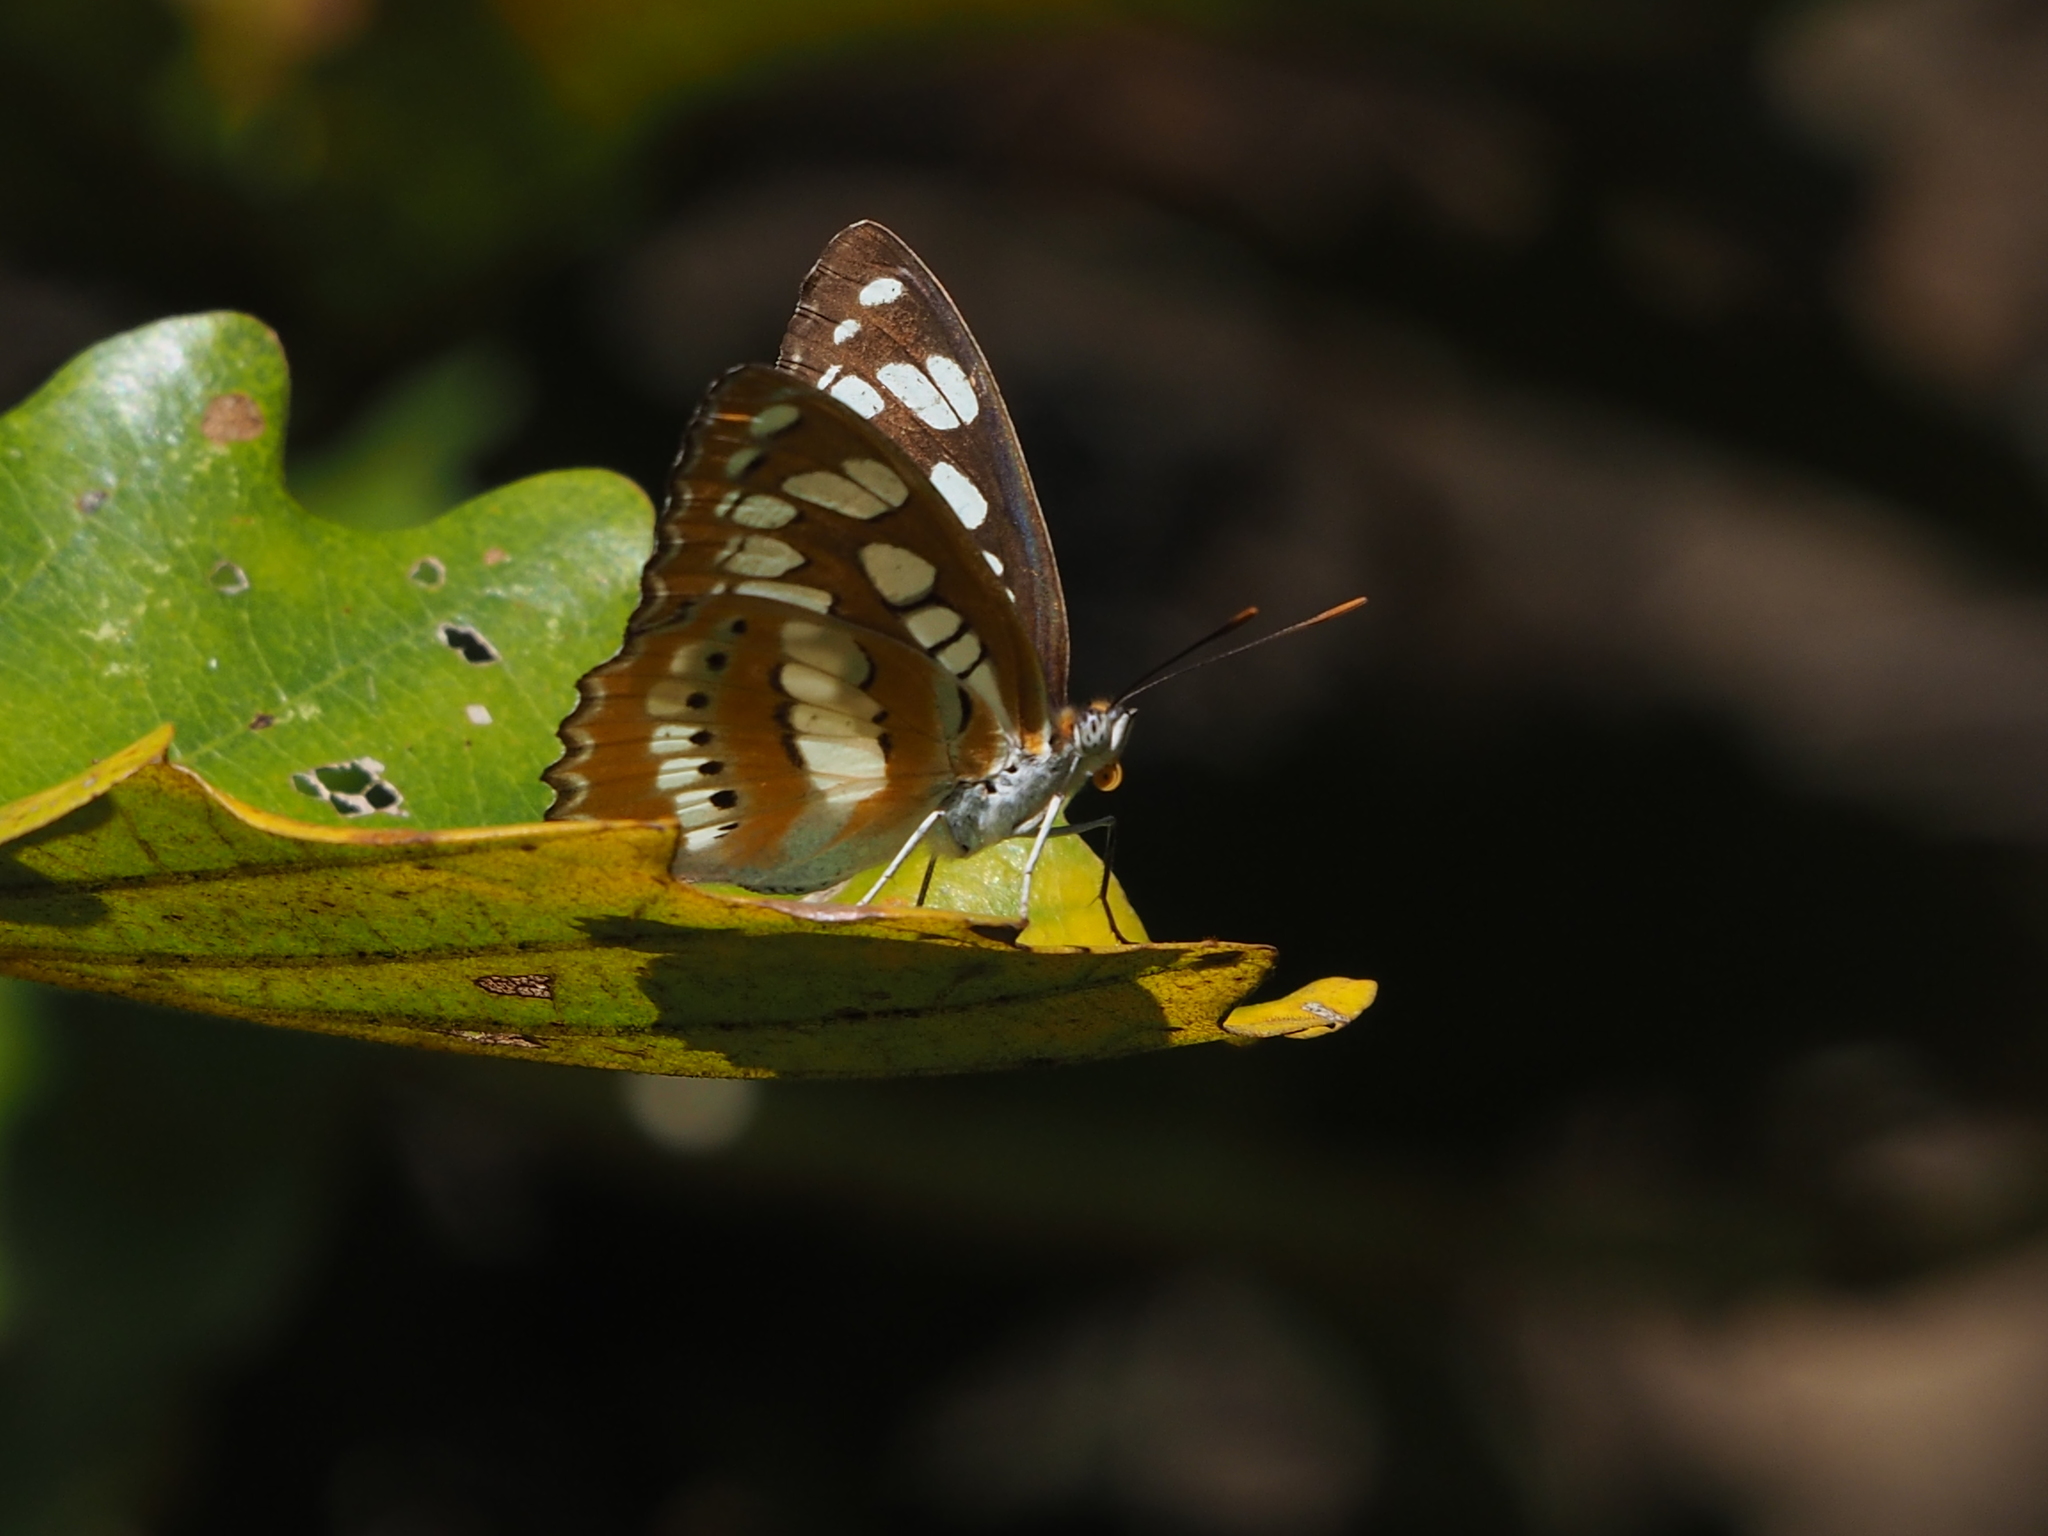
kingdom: Animalia
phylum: Arthropoda
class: Insecta
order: Lepidoptera
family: Nymphalidae
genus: Parathyma
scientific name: Parathyma perius
